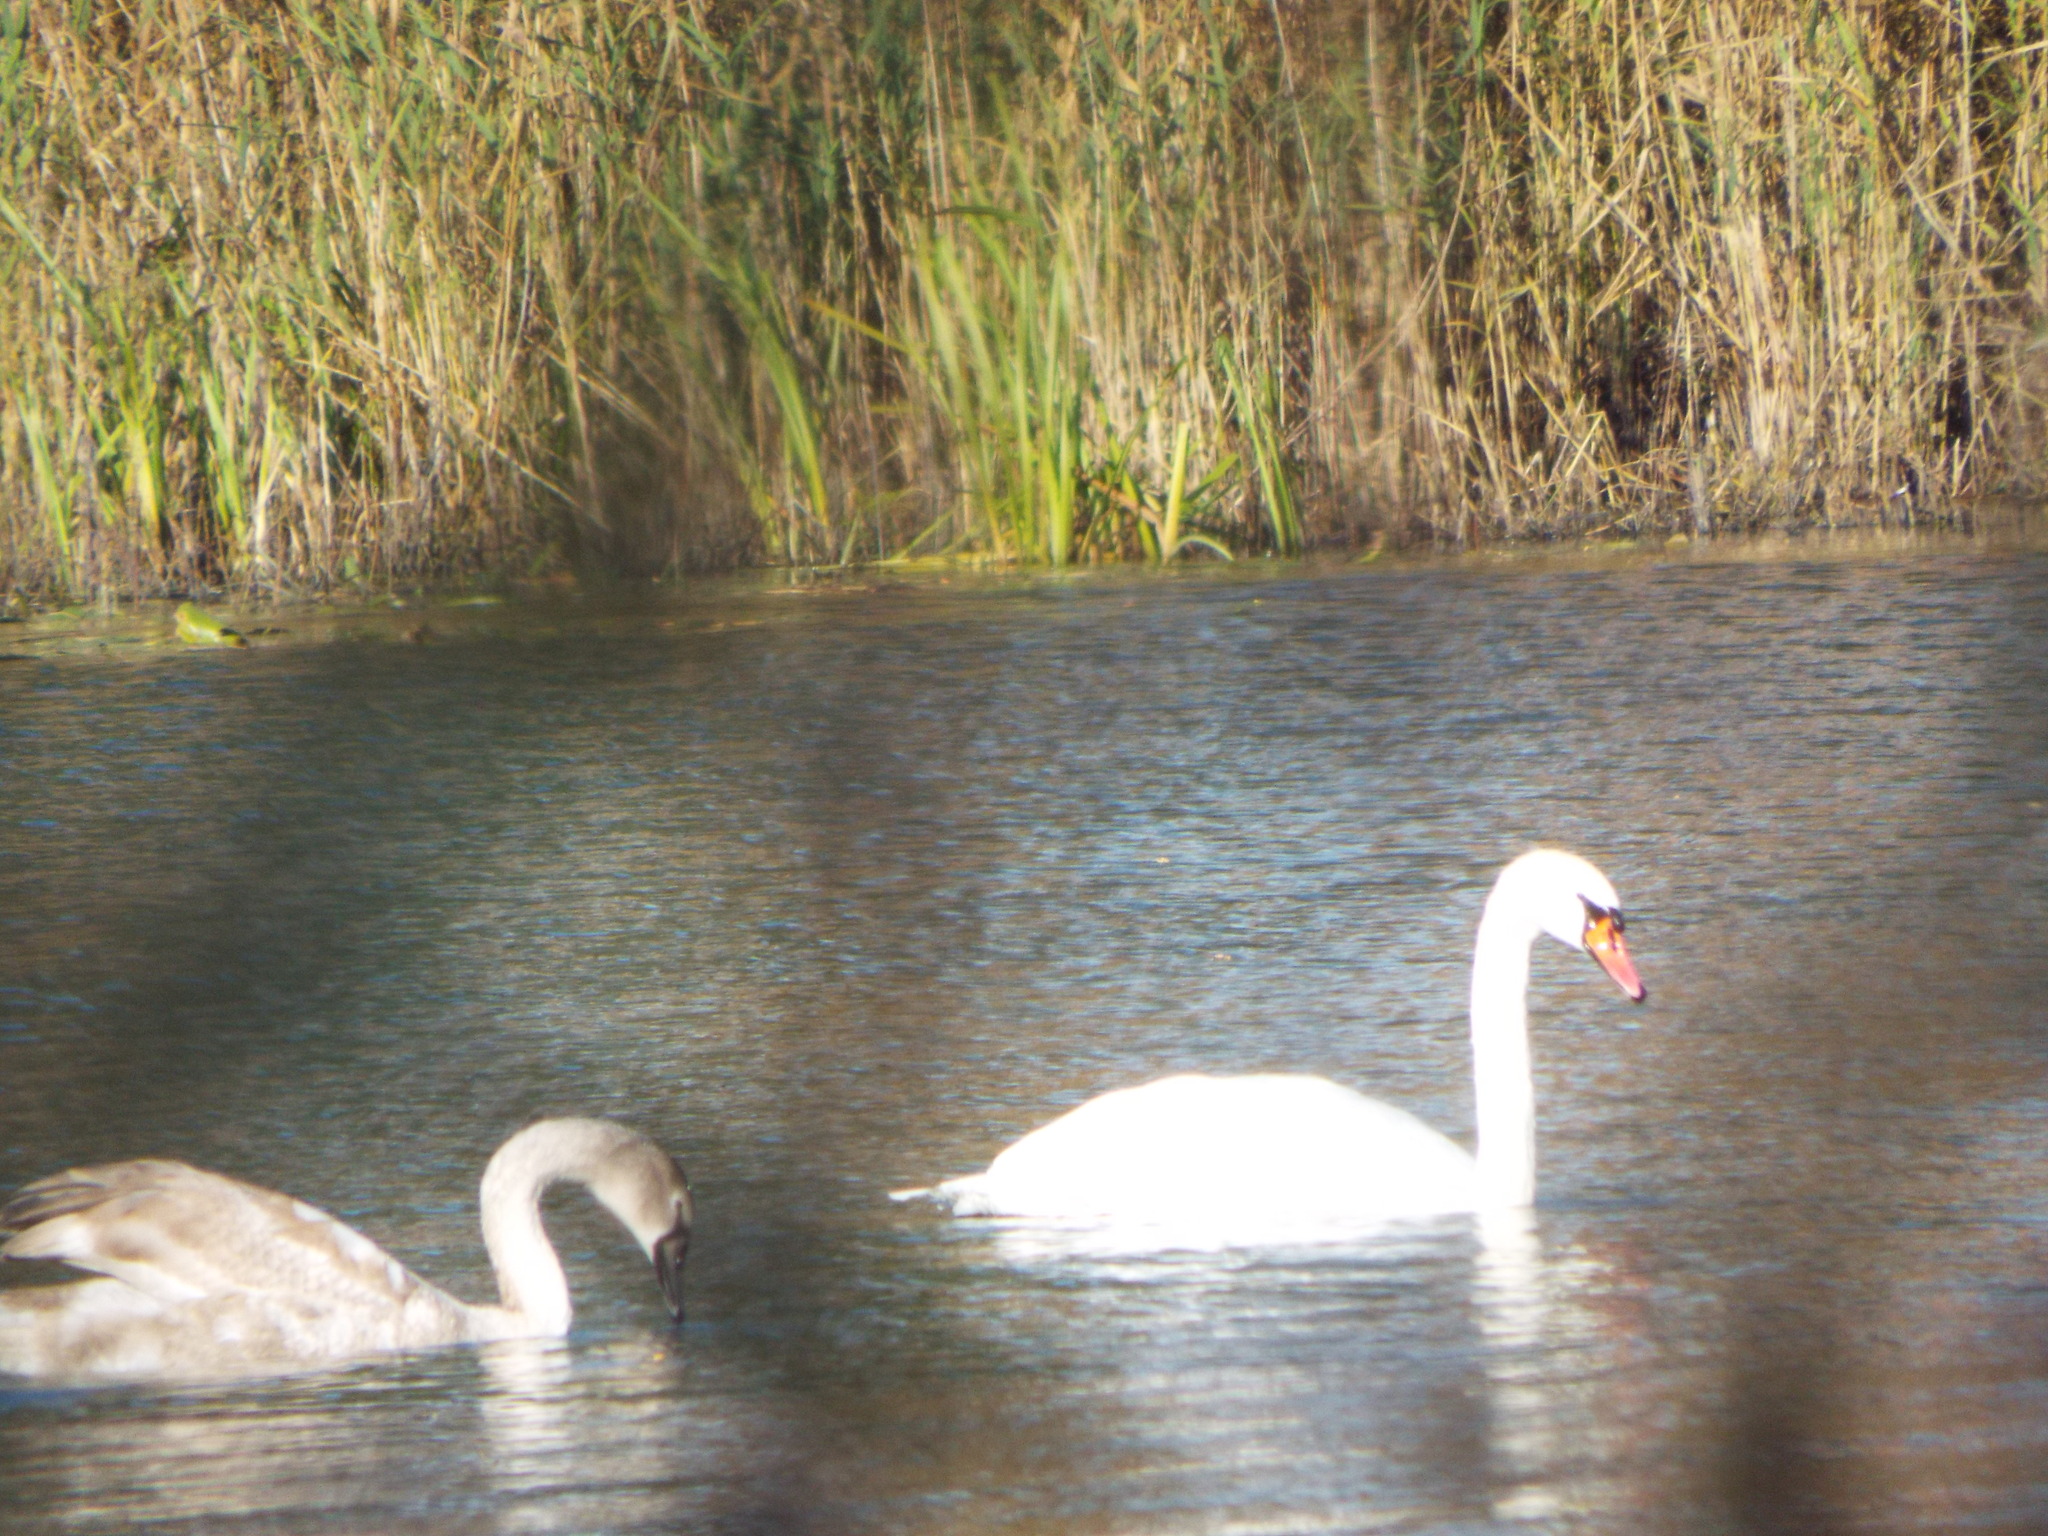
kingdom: Animalia
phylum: Chordata
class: Aves
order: Anseriformes
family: Anatidae
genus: Cygnus
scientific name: Cygnus olor
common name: Mute swan
